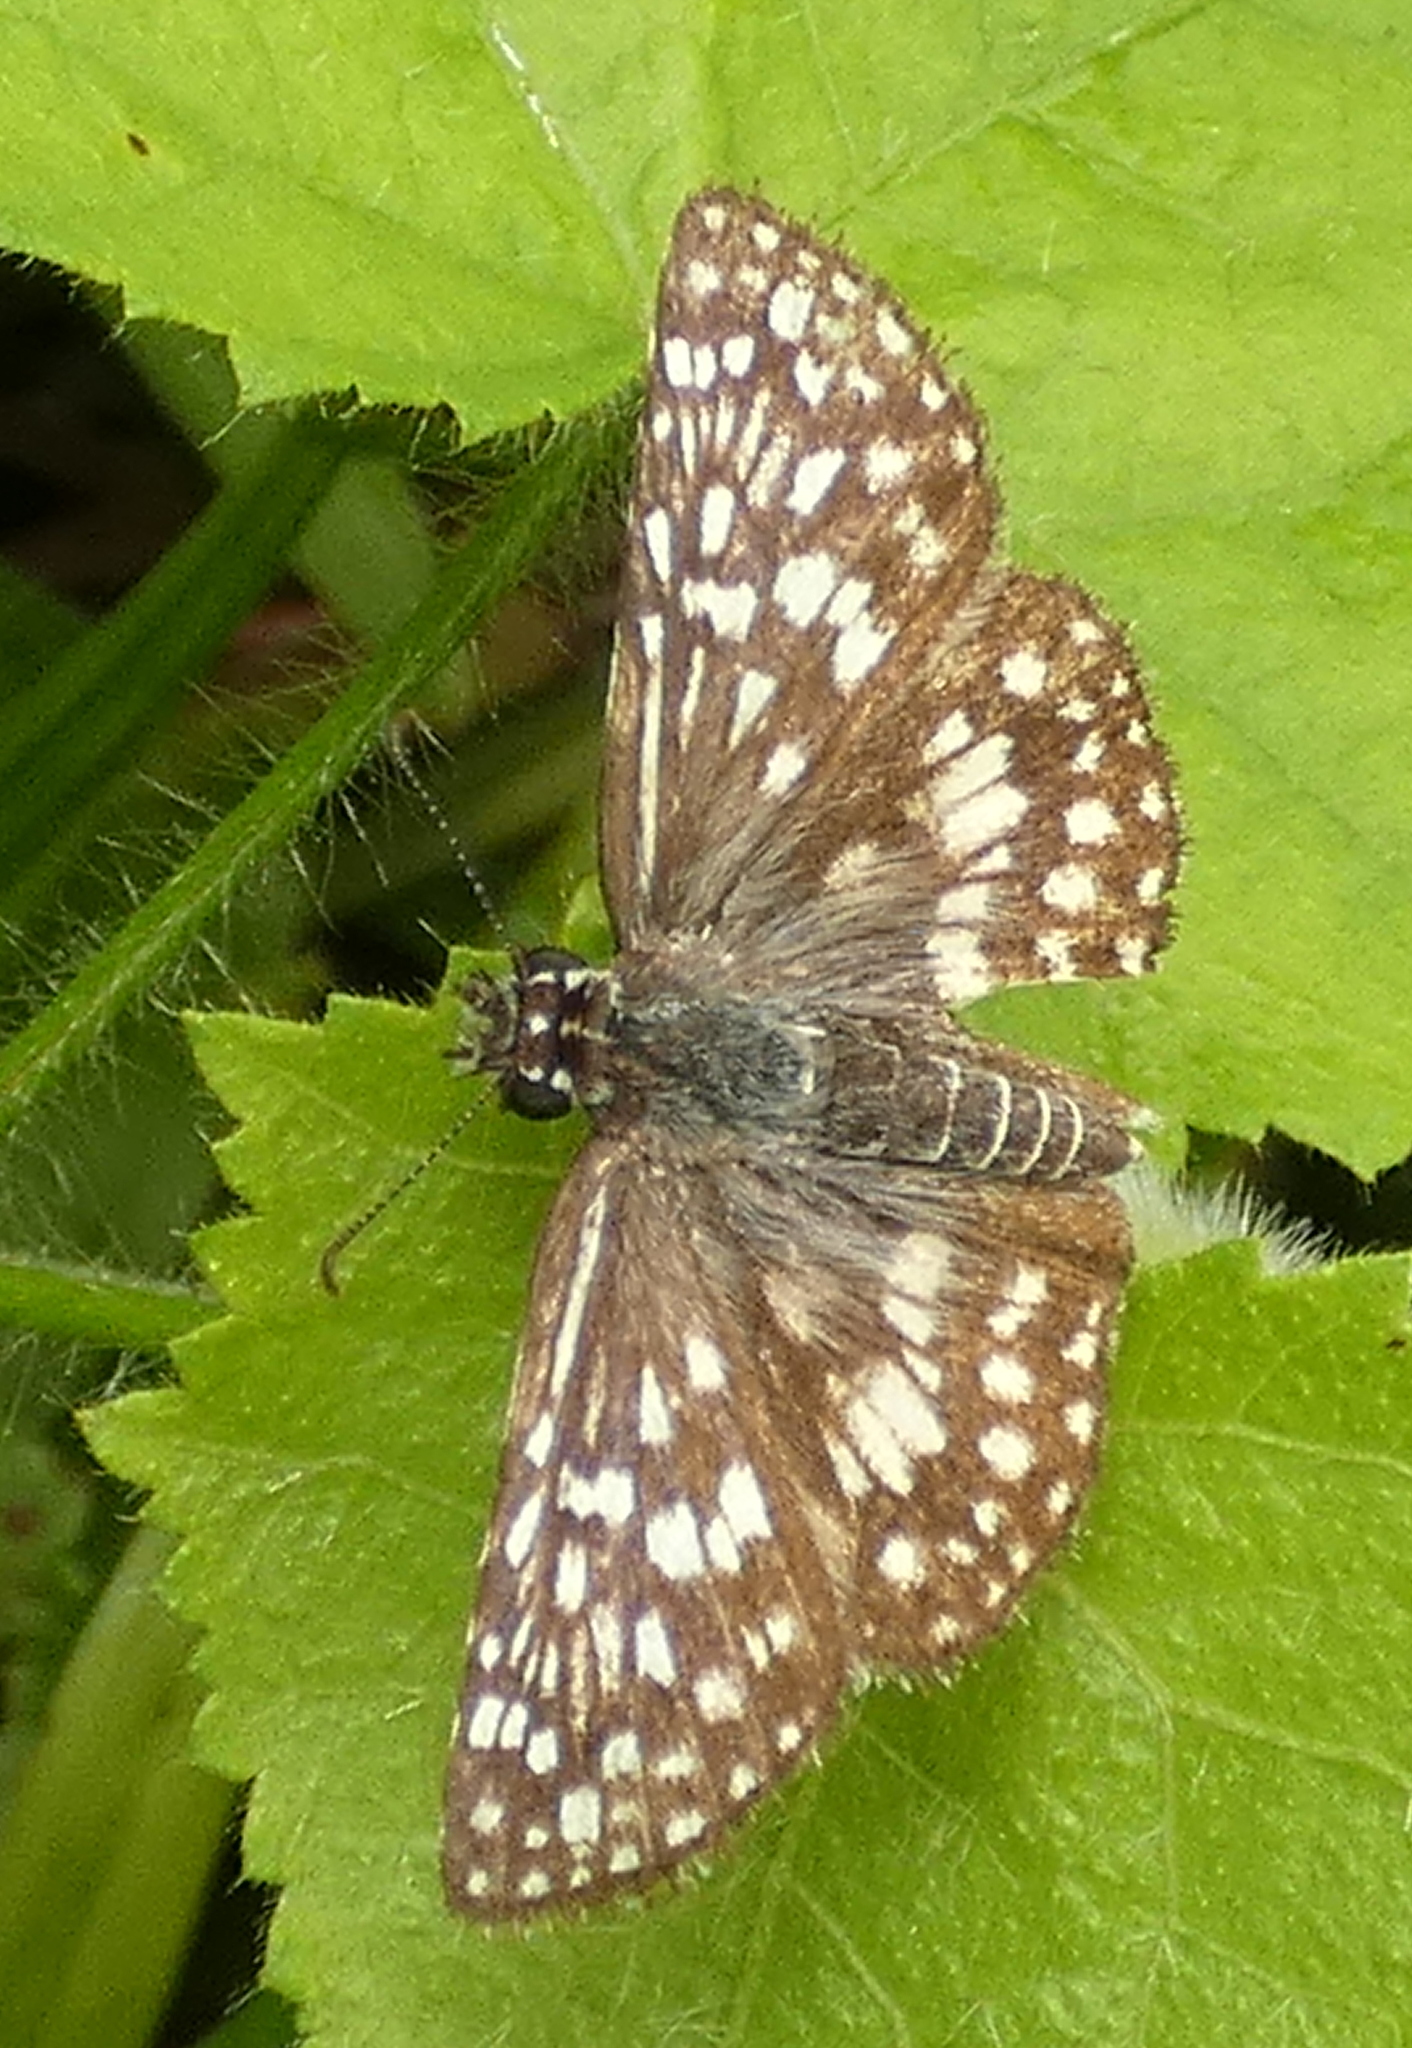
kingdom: Animalia
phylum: Arthropoda
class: Insecta
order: Lepidoptera
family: Hesperiidae
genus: Pyrgus
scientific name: Pyrgus oileus
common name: Tropical checkered-skipper
